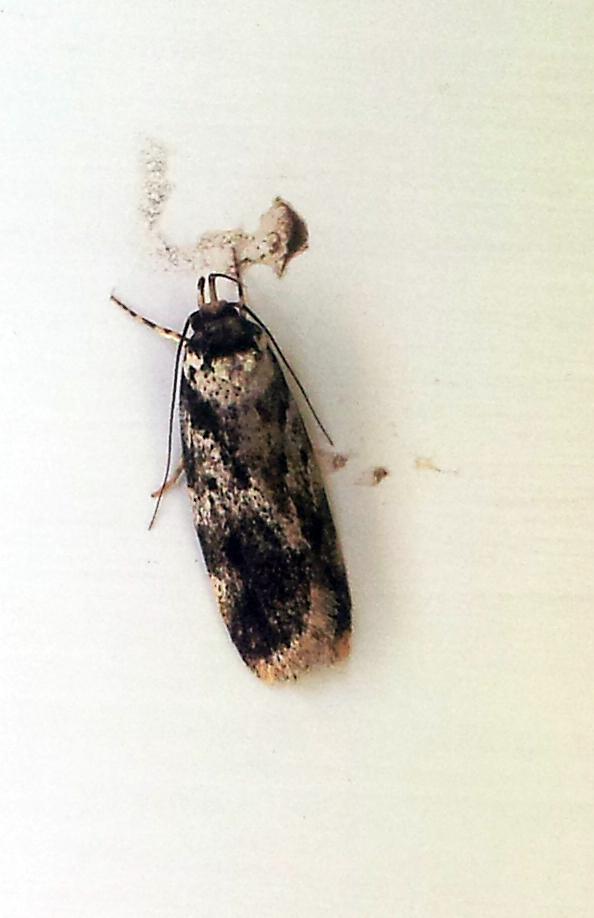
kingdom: Animalia
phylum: Arthropoda
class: Insecta
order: Lepidoptera
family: Oecophoridae
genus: Barea
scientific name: Barea confusella
